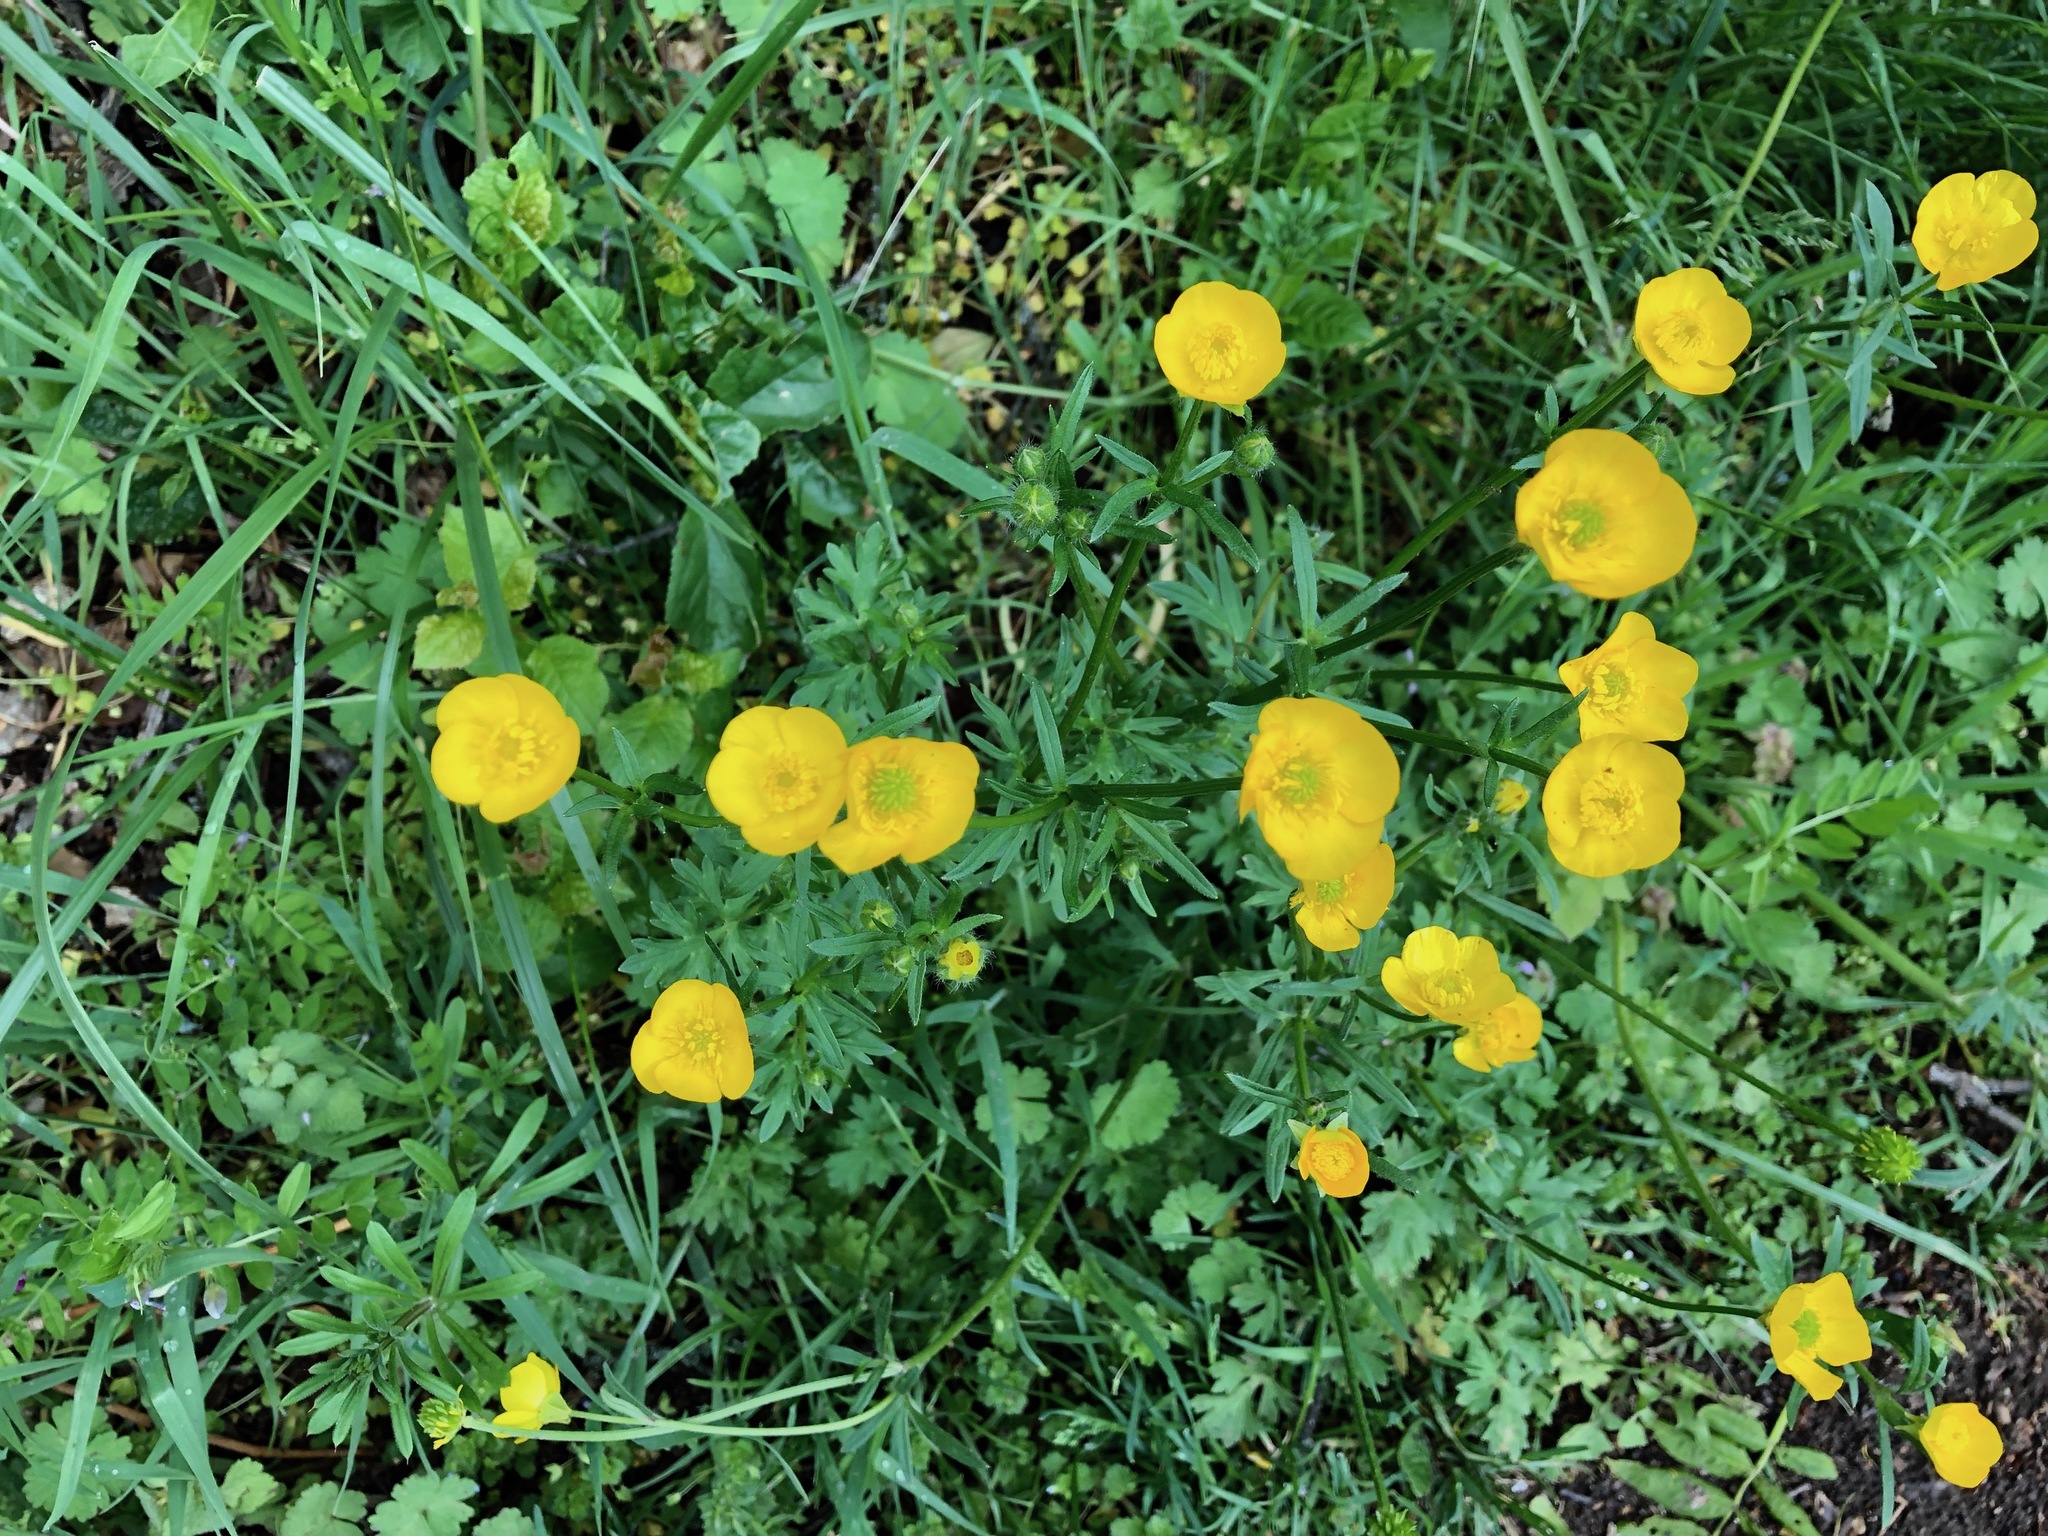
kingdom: Plantae
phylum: Tracheophyta
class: Magnoliopsida
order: Ranunculales
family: Ranunculaceae
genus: Ranunculus
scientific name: Ranunculus acris
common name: Meadow buttercup
